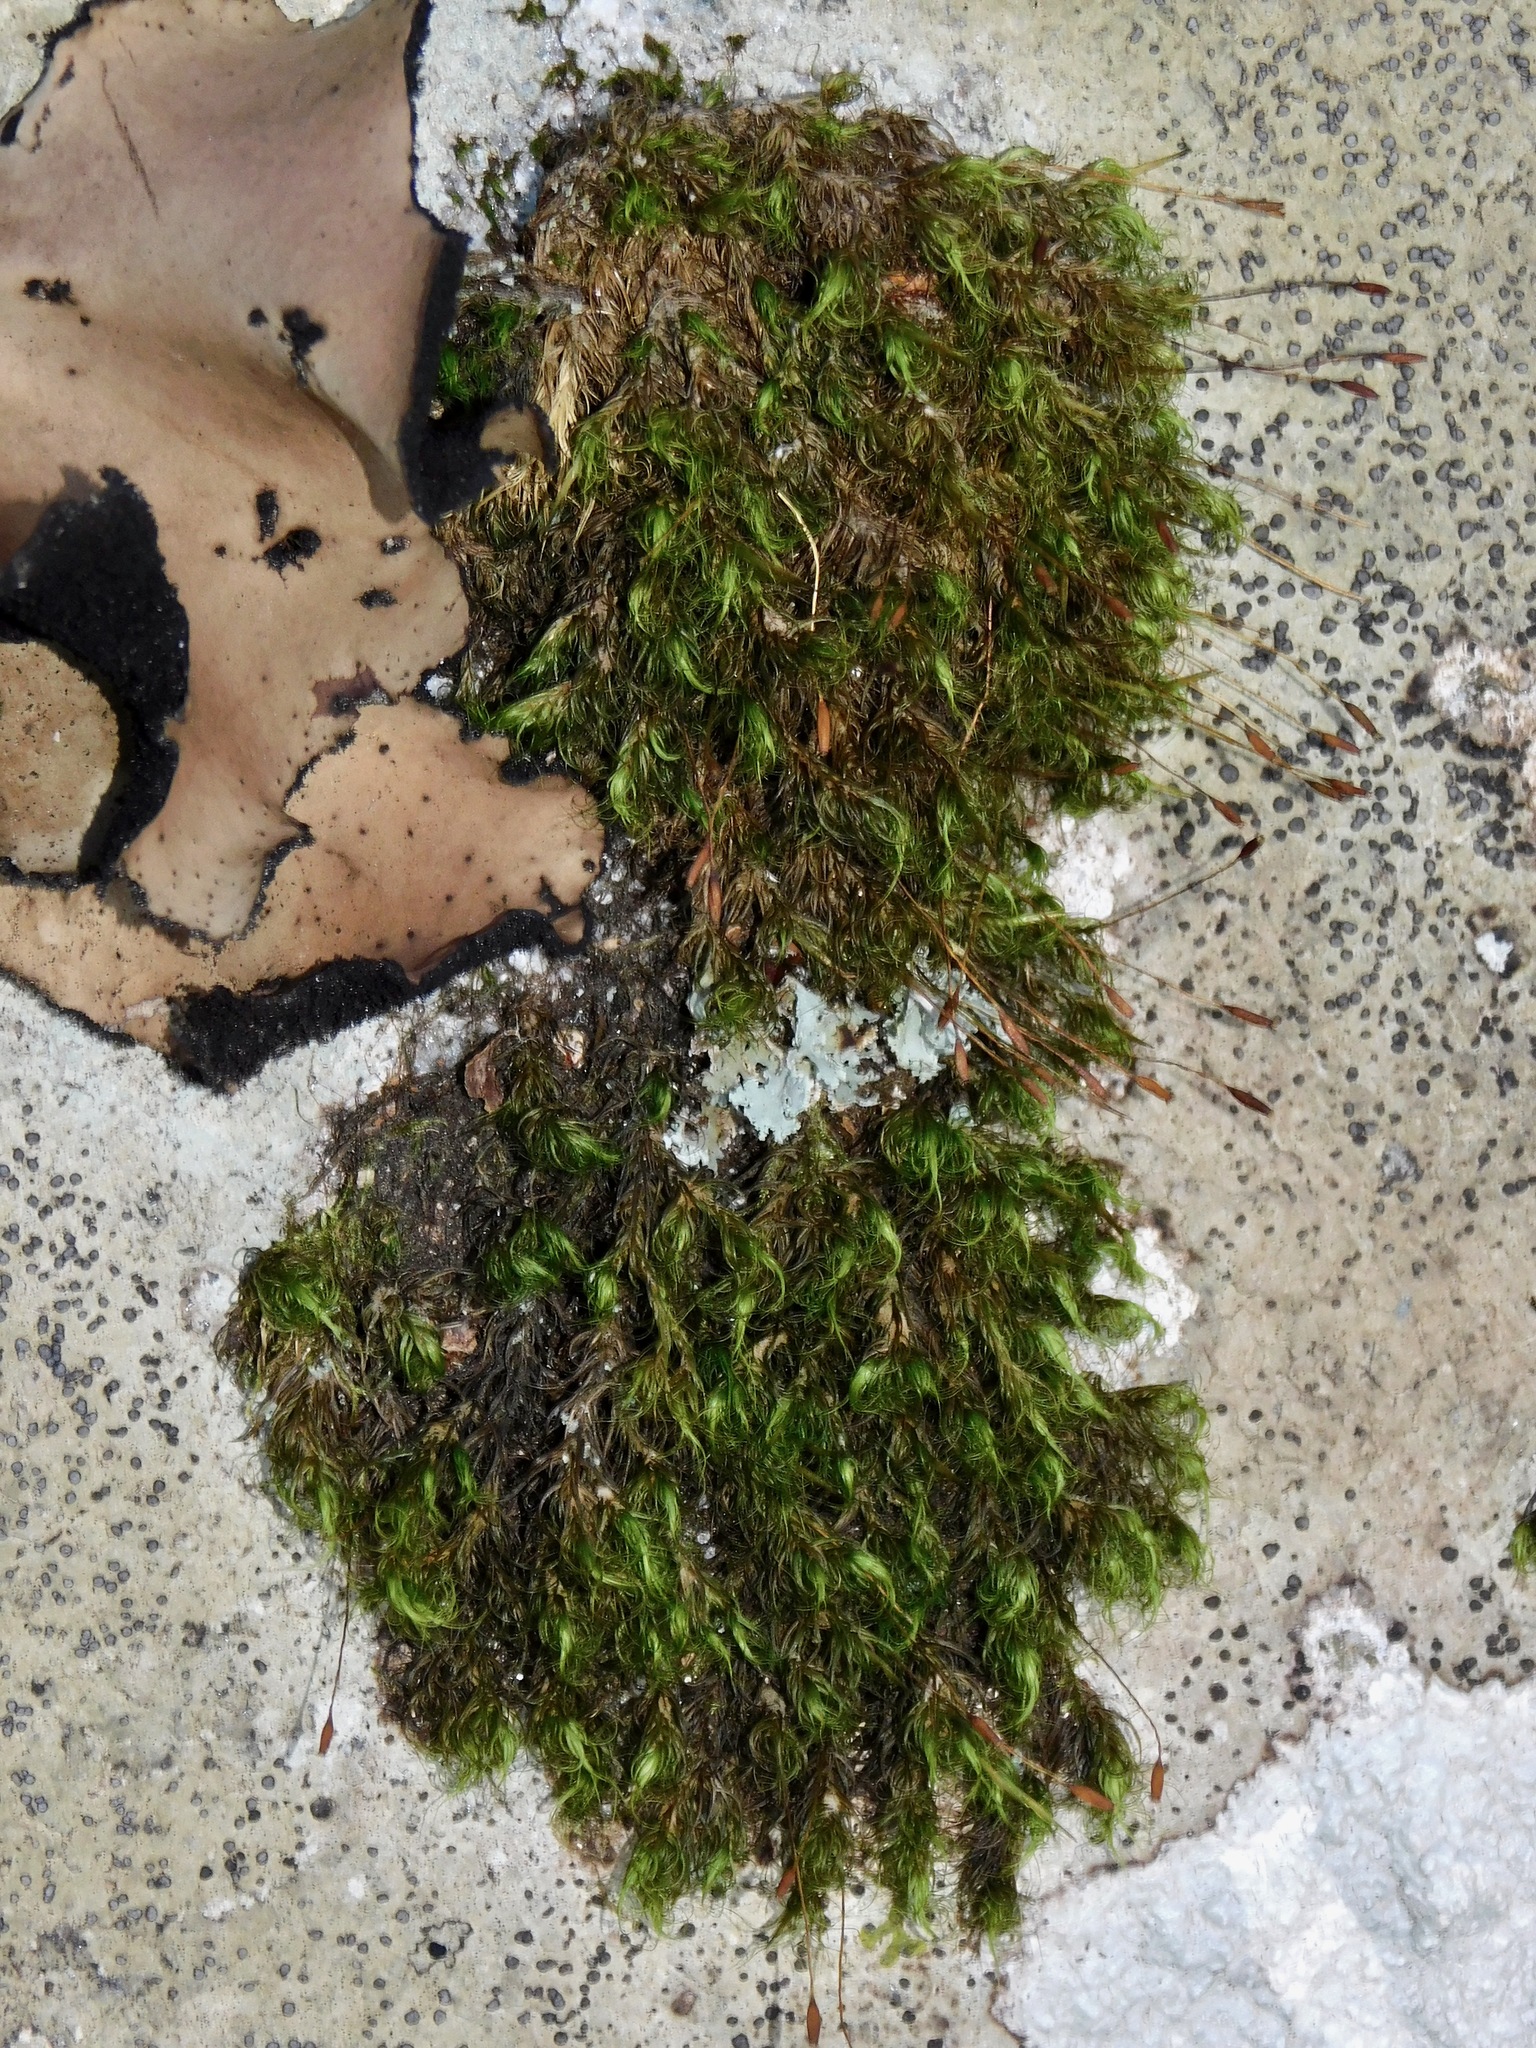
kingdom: Plantae
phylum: Bryophyta
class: Bryopsida
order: Dicranales
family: Dicranaceae
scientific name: Dicranaceae
